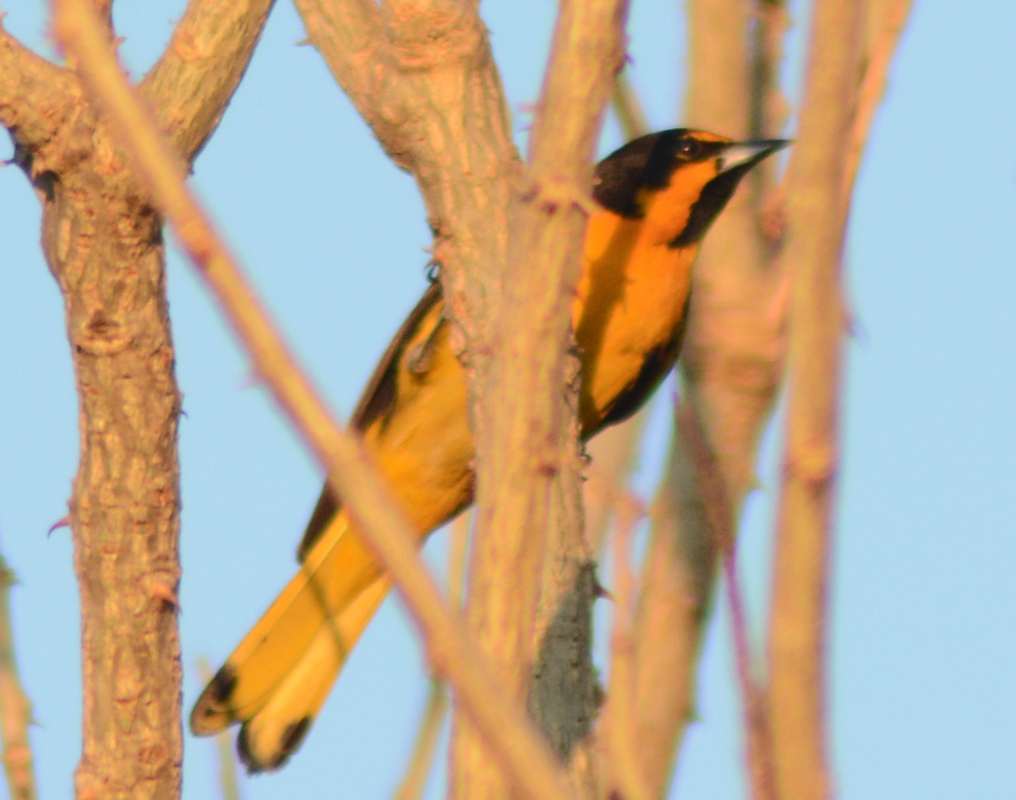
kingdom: Animalia
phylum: Chordata
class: Aves
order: Passeriformes
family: Icteridae
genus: Icterus
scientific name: Icterus abeillei
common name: Black-backed oriole
